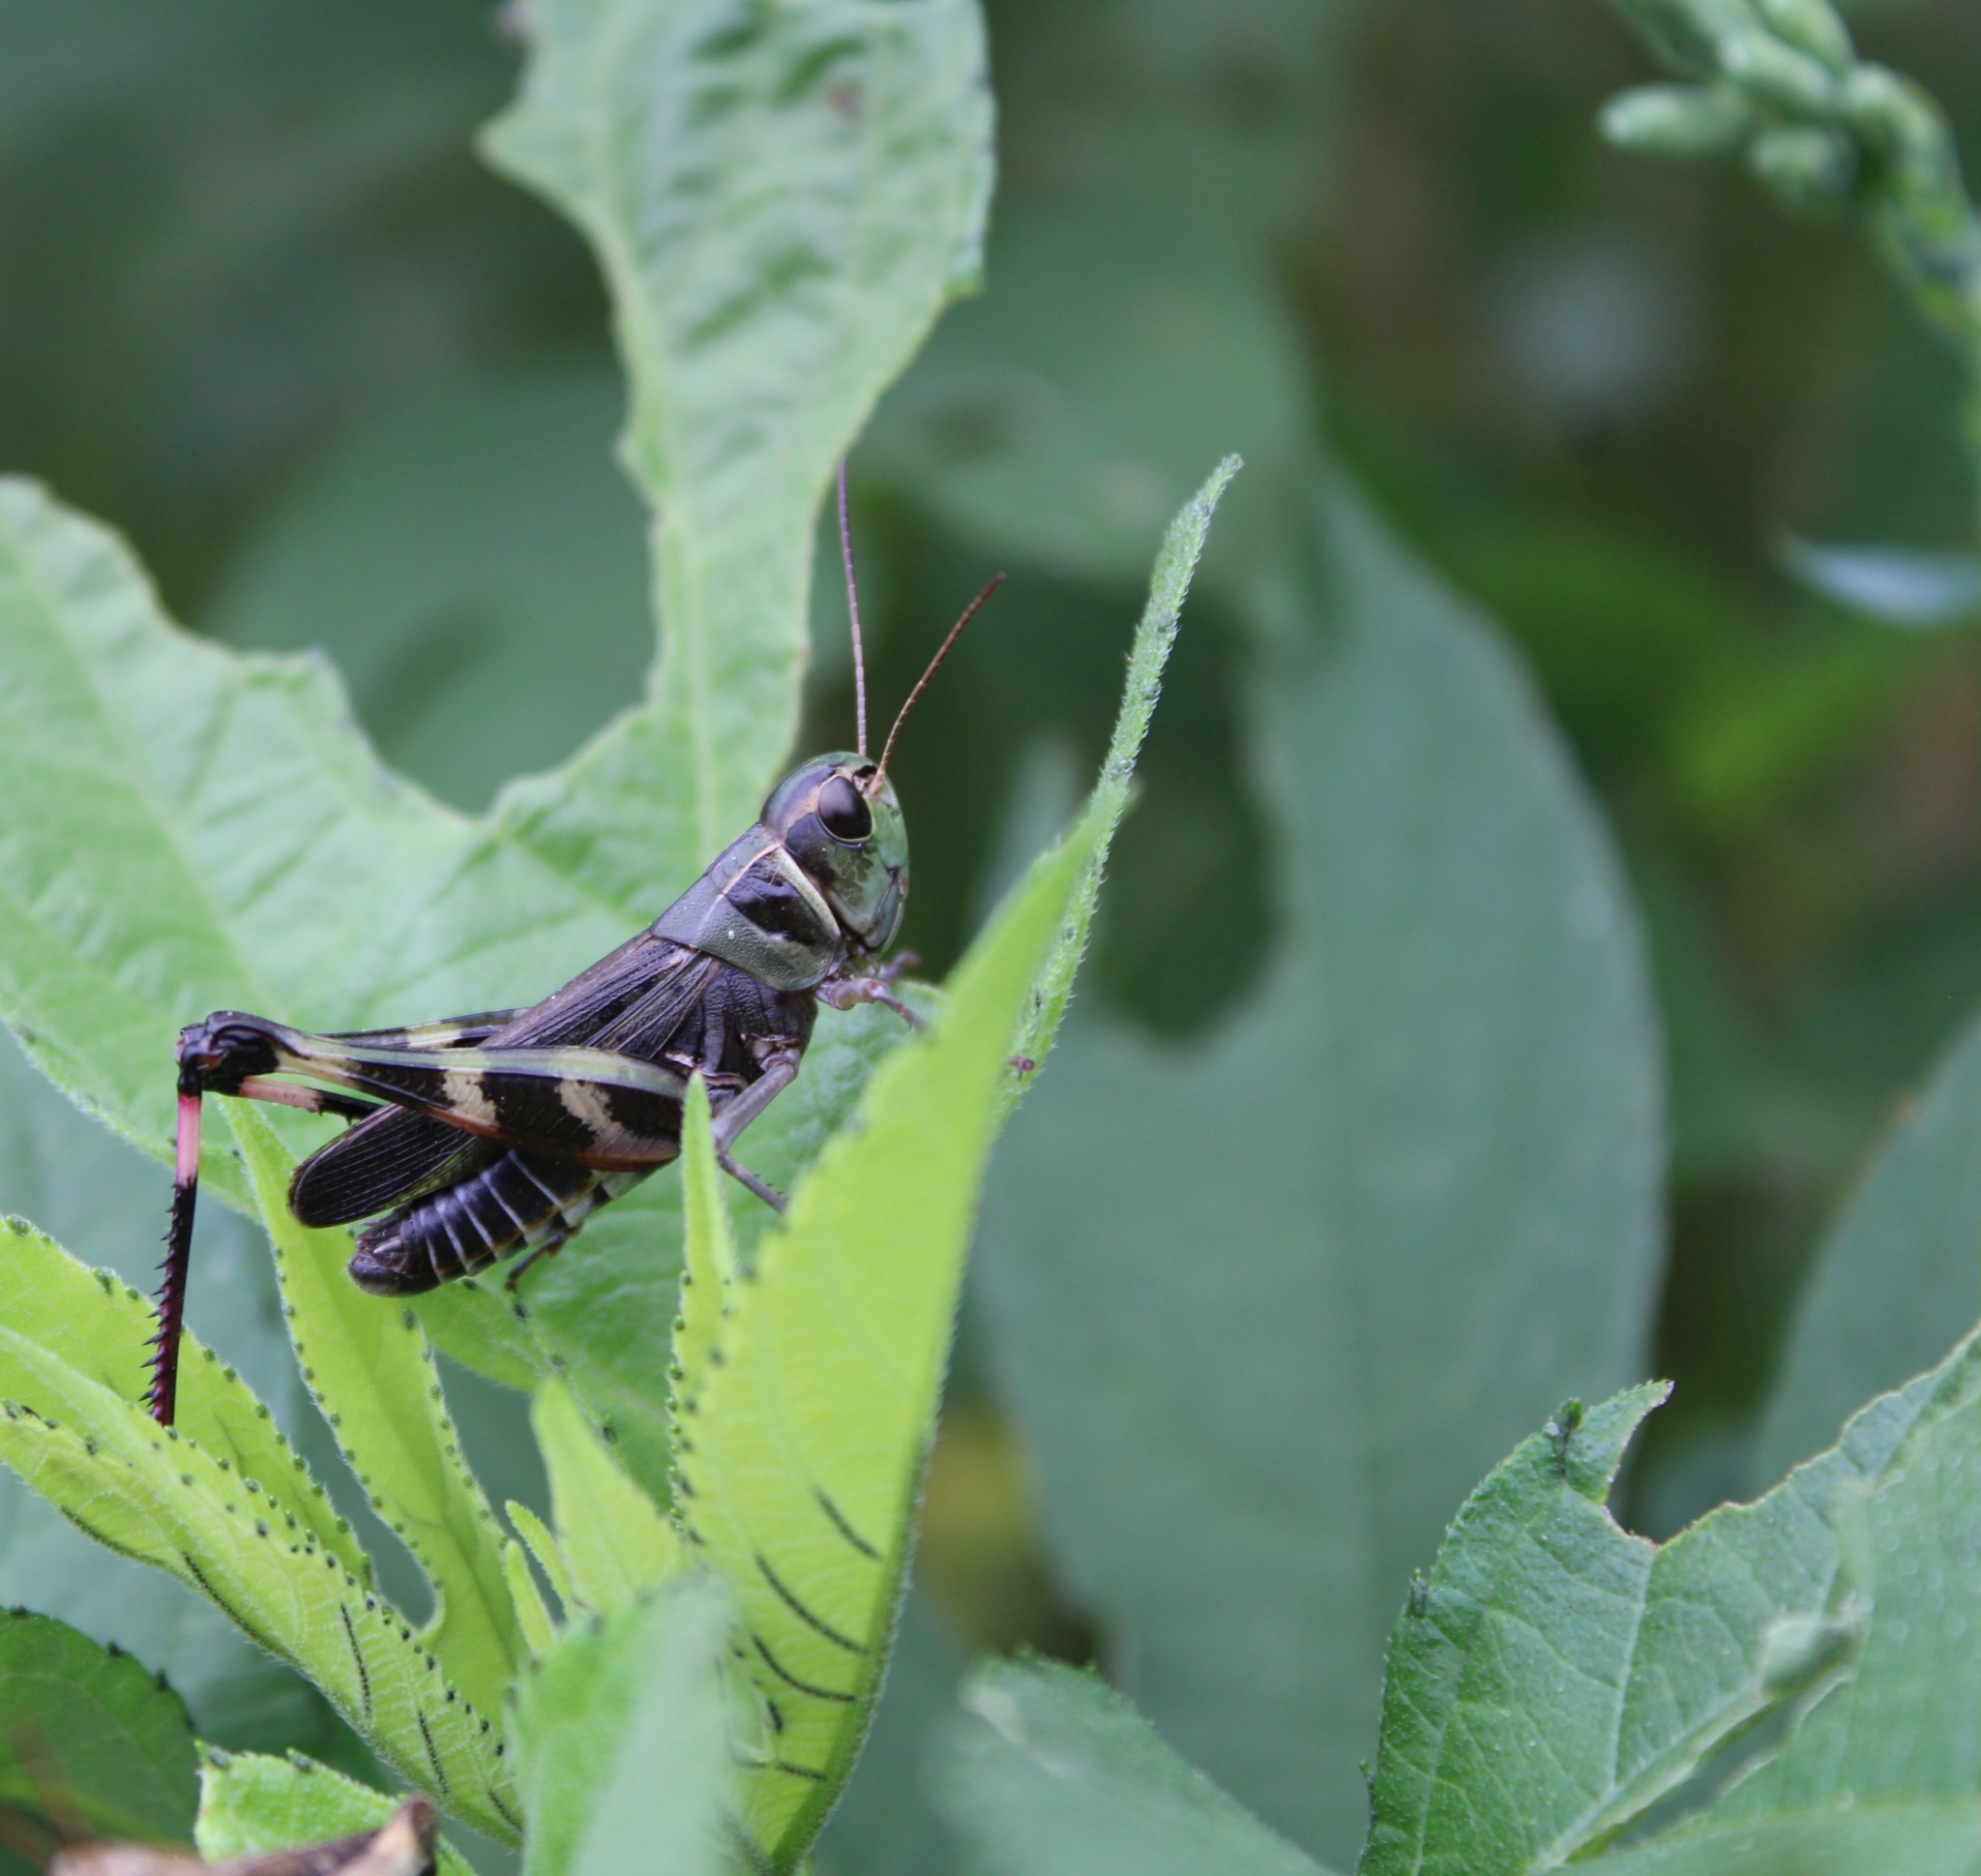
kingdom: Animalia
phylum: Arthropoda
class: Insecta
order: Orthoptera
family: Acrididae
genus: Boopedon
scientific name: Boopedon gracile
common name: Graceful range grasshopper
